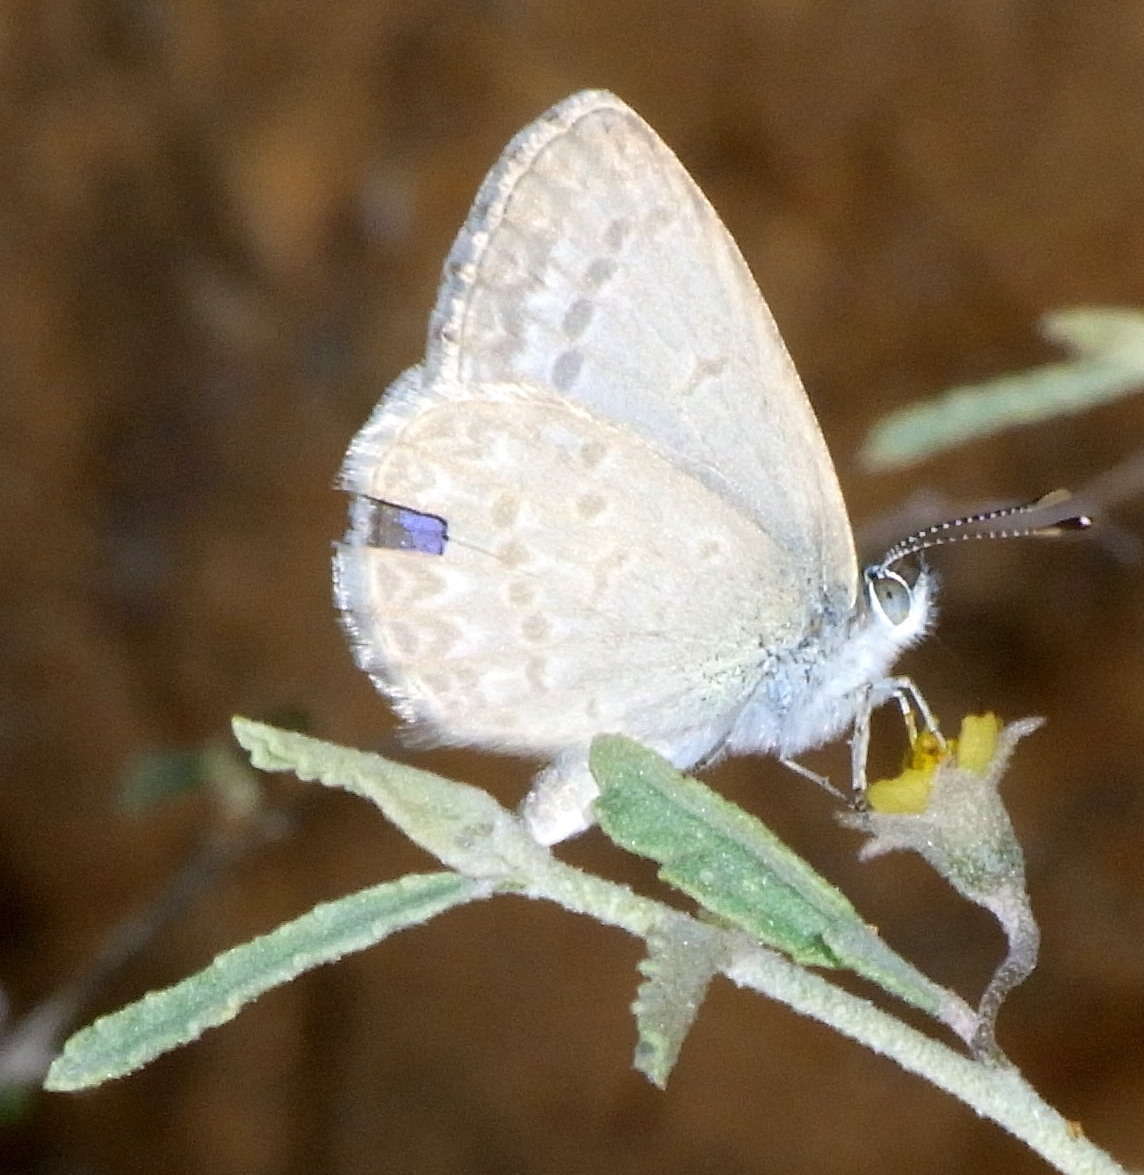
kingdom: Animalia
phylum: Arthropoda
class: Insecta
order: Lepidoptera
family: Lycaenidae
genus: Zizina
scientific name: Zizina labradus
